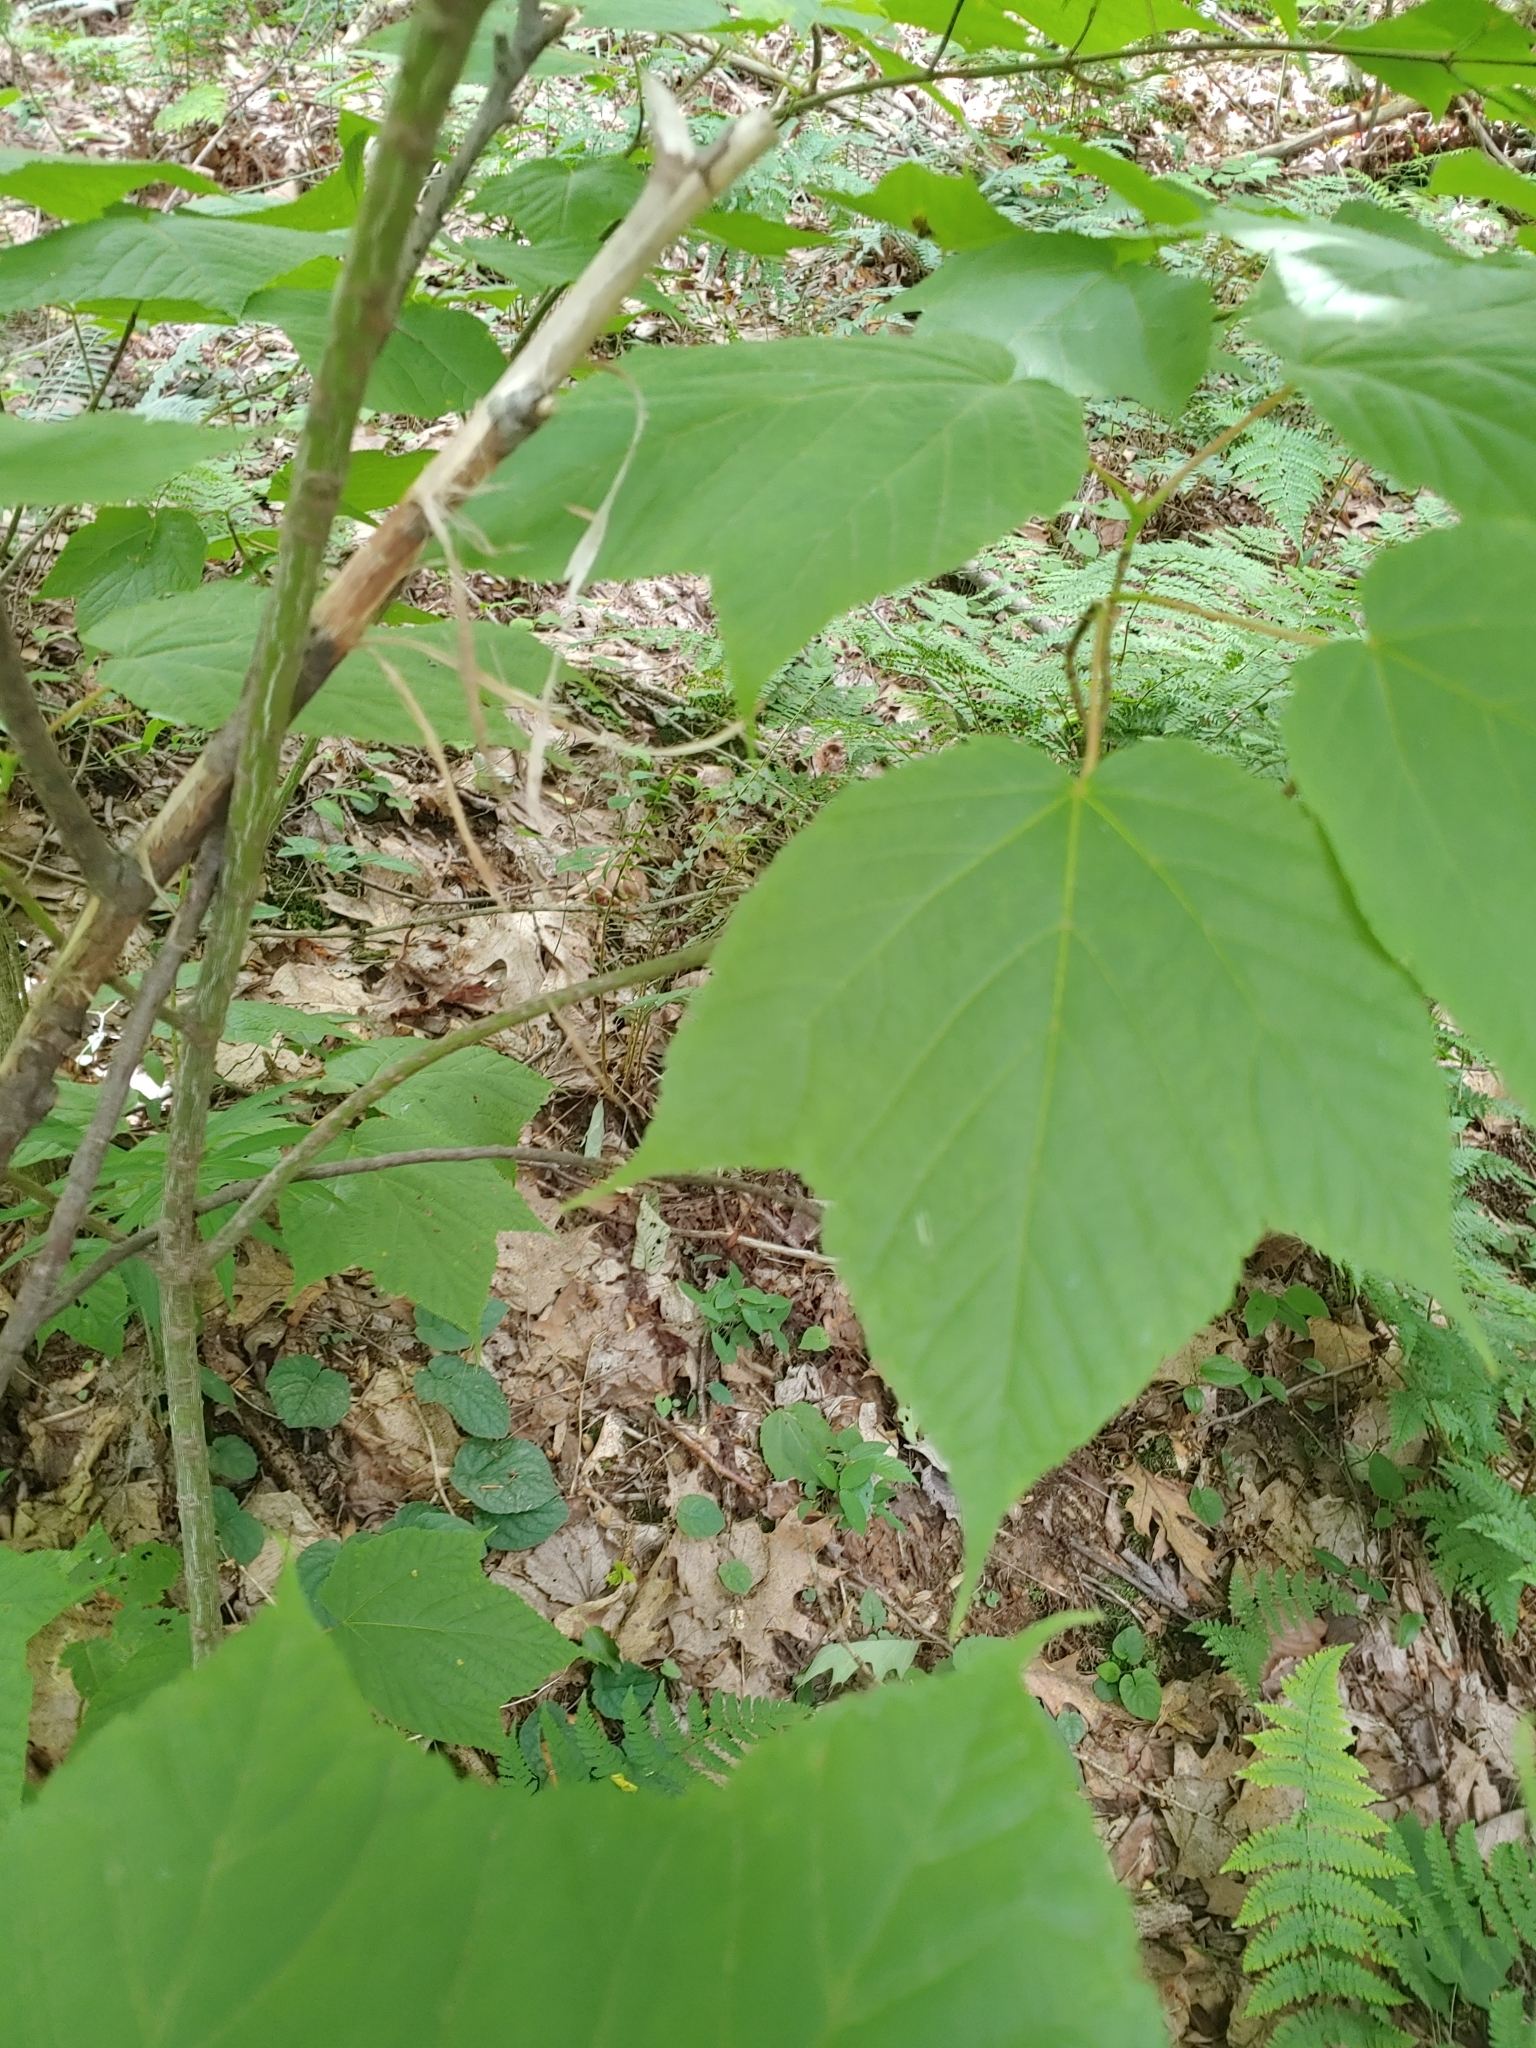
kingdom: Plantae
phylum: Tracheophyta
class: Magnoliopsida
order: Sapindales
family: Sapindaceae
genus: Acer
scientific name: Acer pensylvanicum
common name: Moosewood
